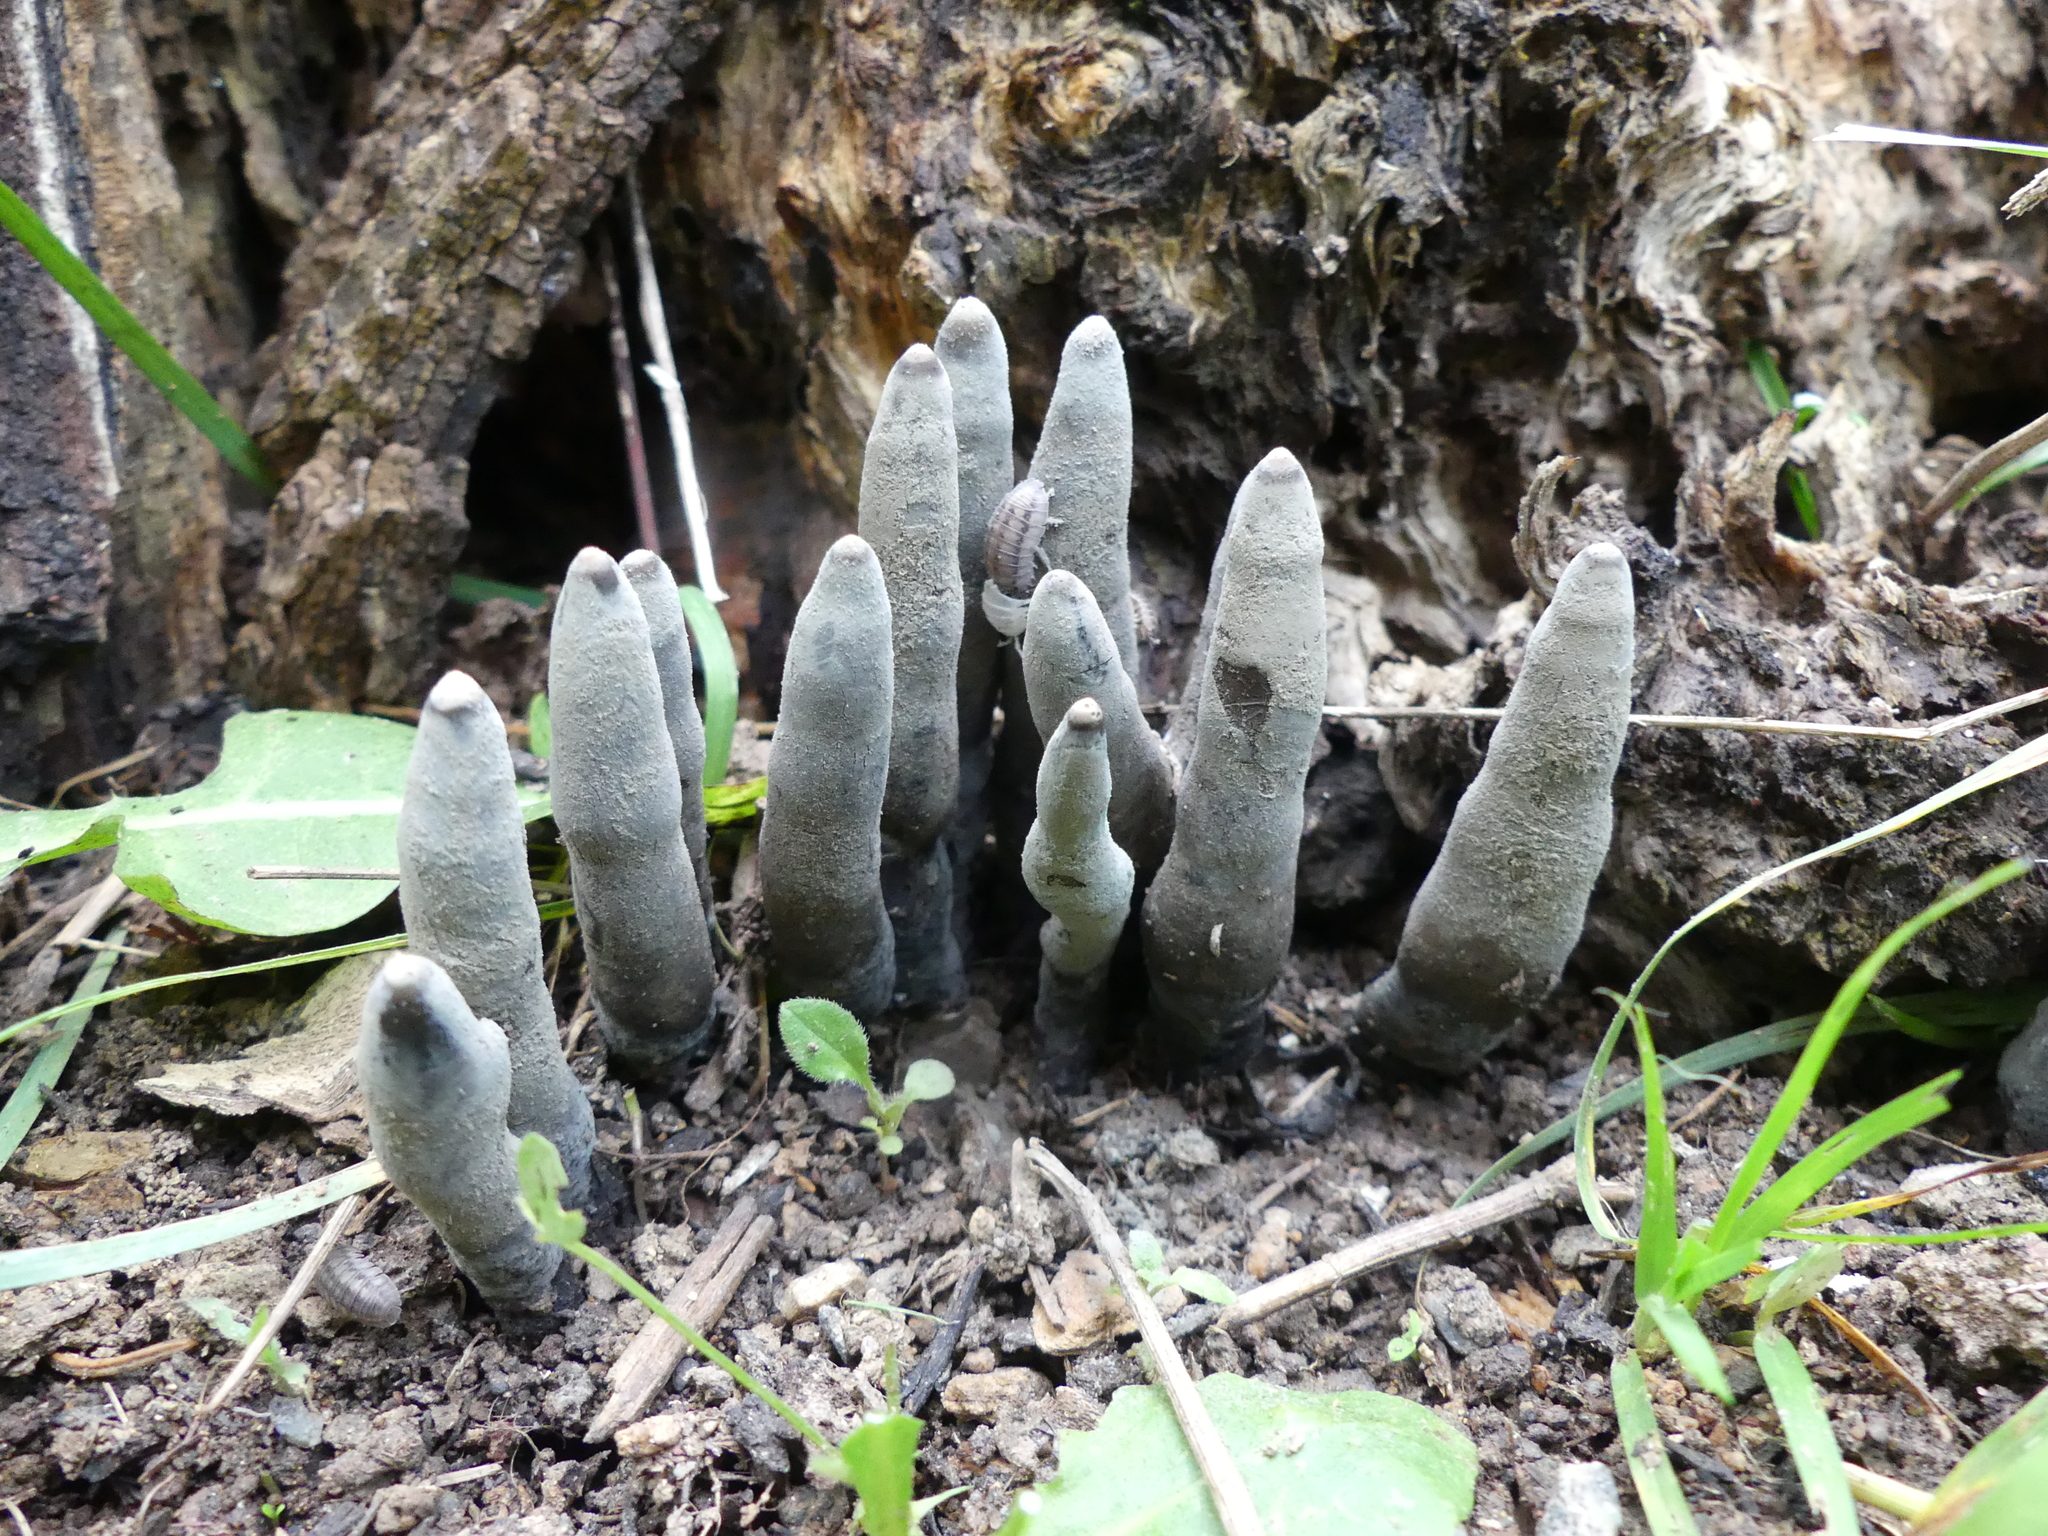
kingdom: Fungi
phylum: Ascomycota
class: Sordariomycetes
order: Xylariales
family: Xylariaceae
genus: Xylaria
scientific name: Xylaria polymorpha
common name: Dead man's fingers
